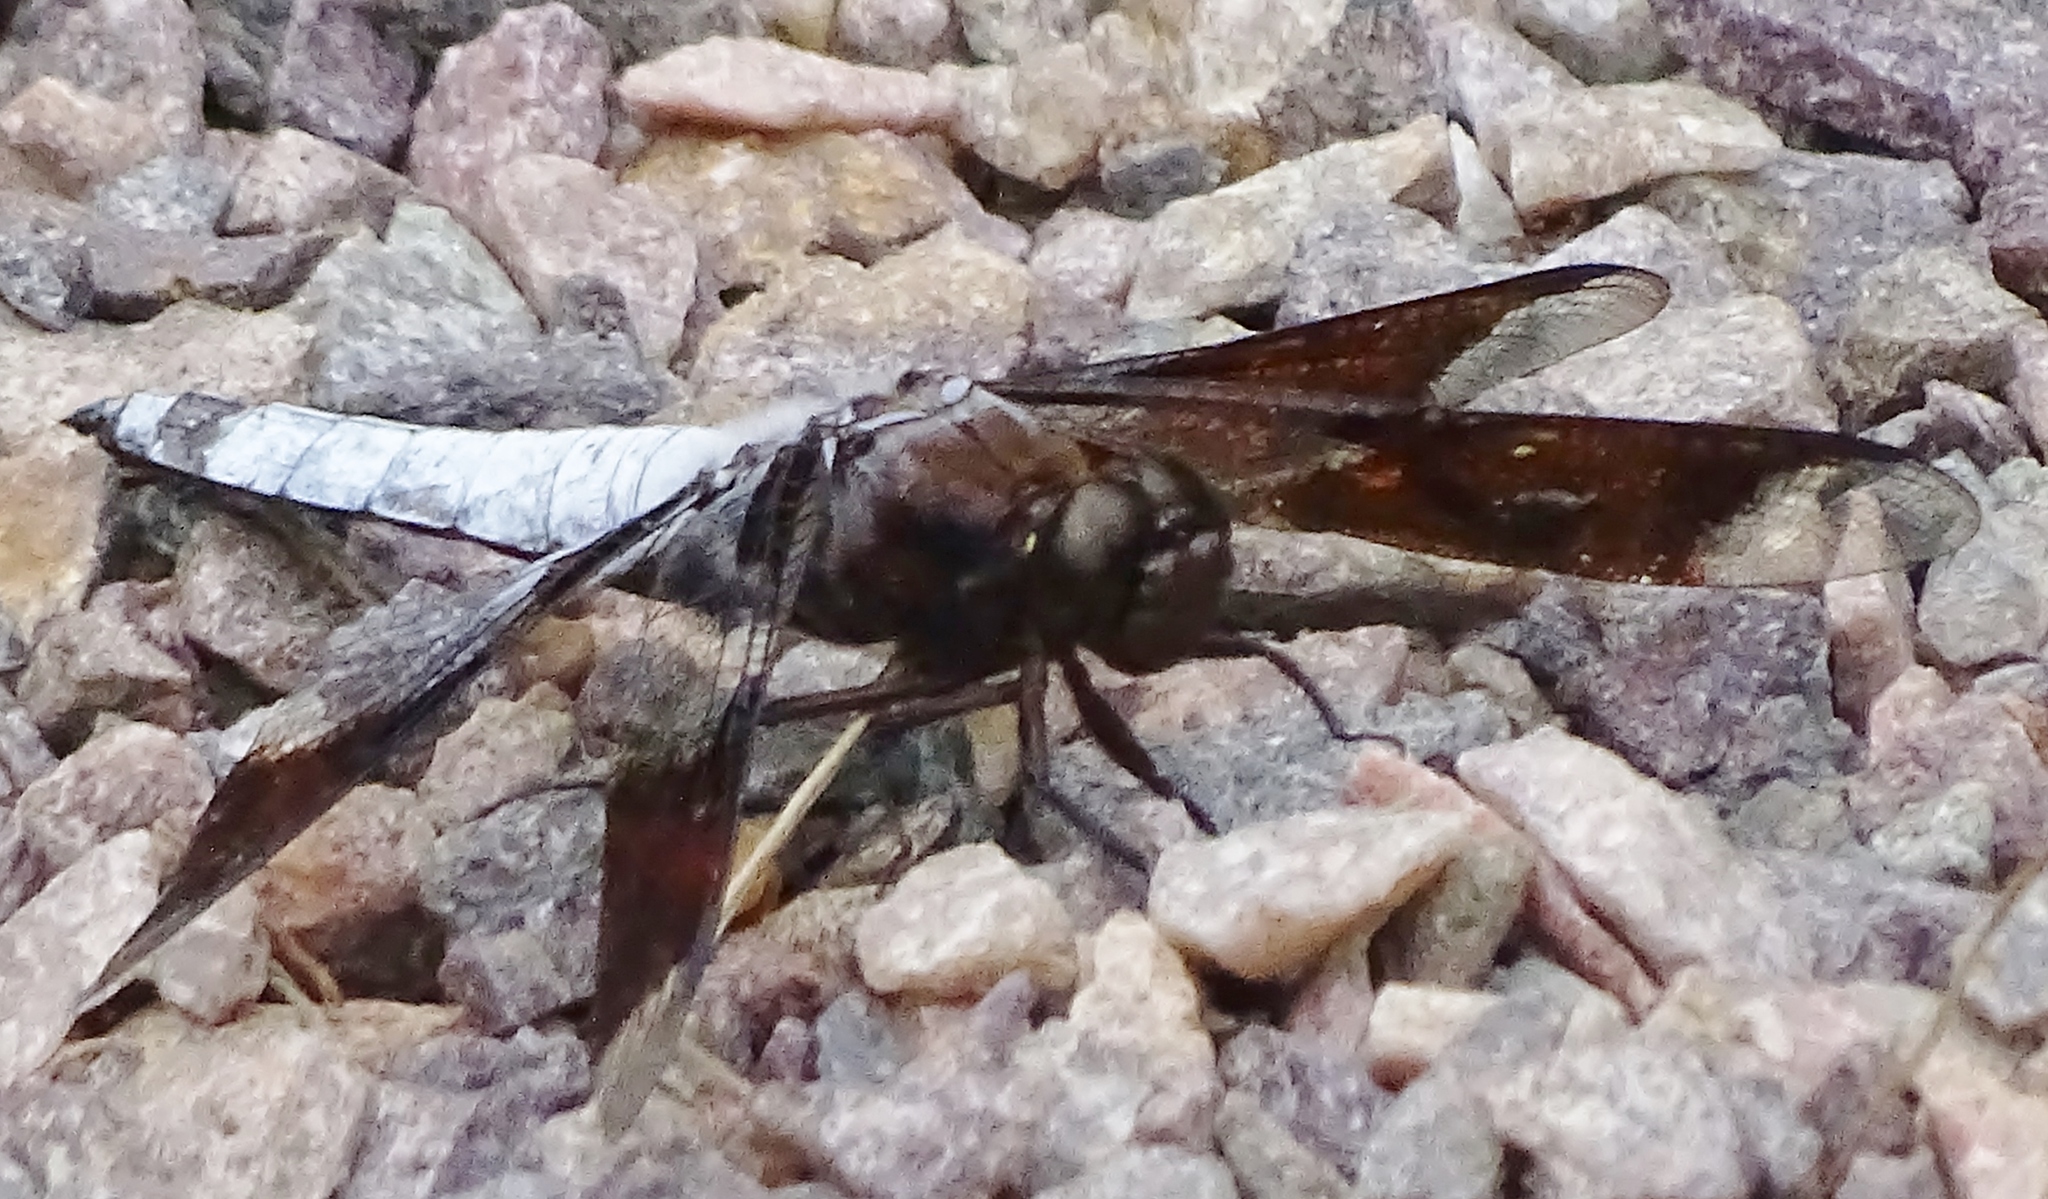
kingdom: Animalia
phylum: Arthropoda
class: Insecta
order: Odonata
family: Libellulidae
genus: Plathemis
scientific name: Plathemis lydia
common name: Common whitetail
